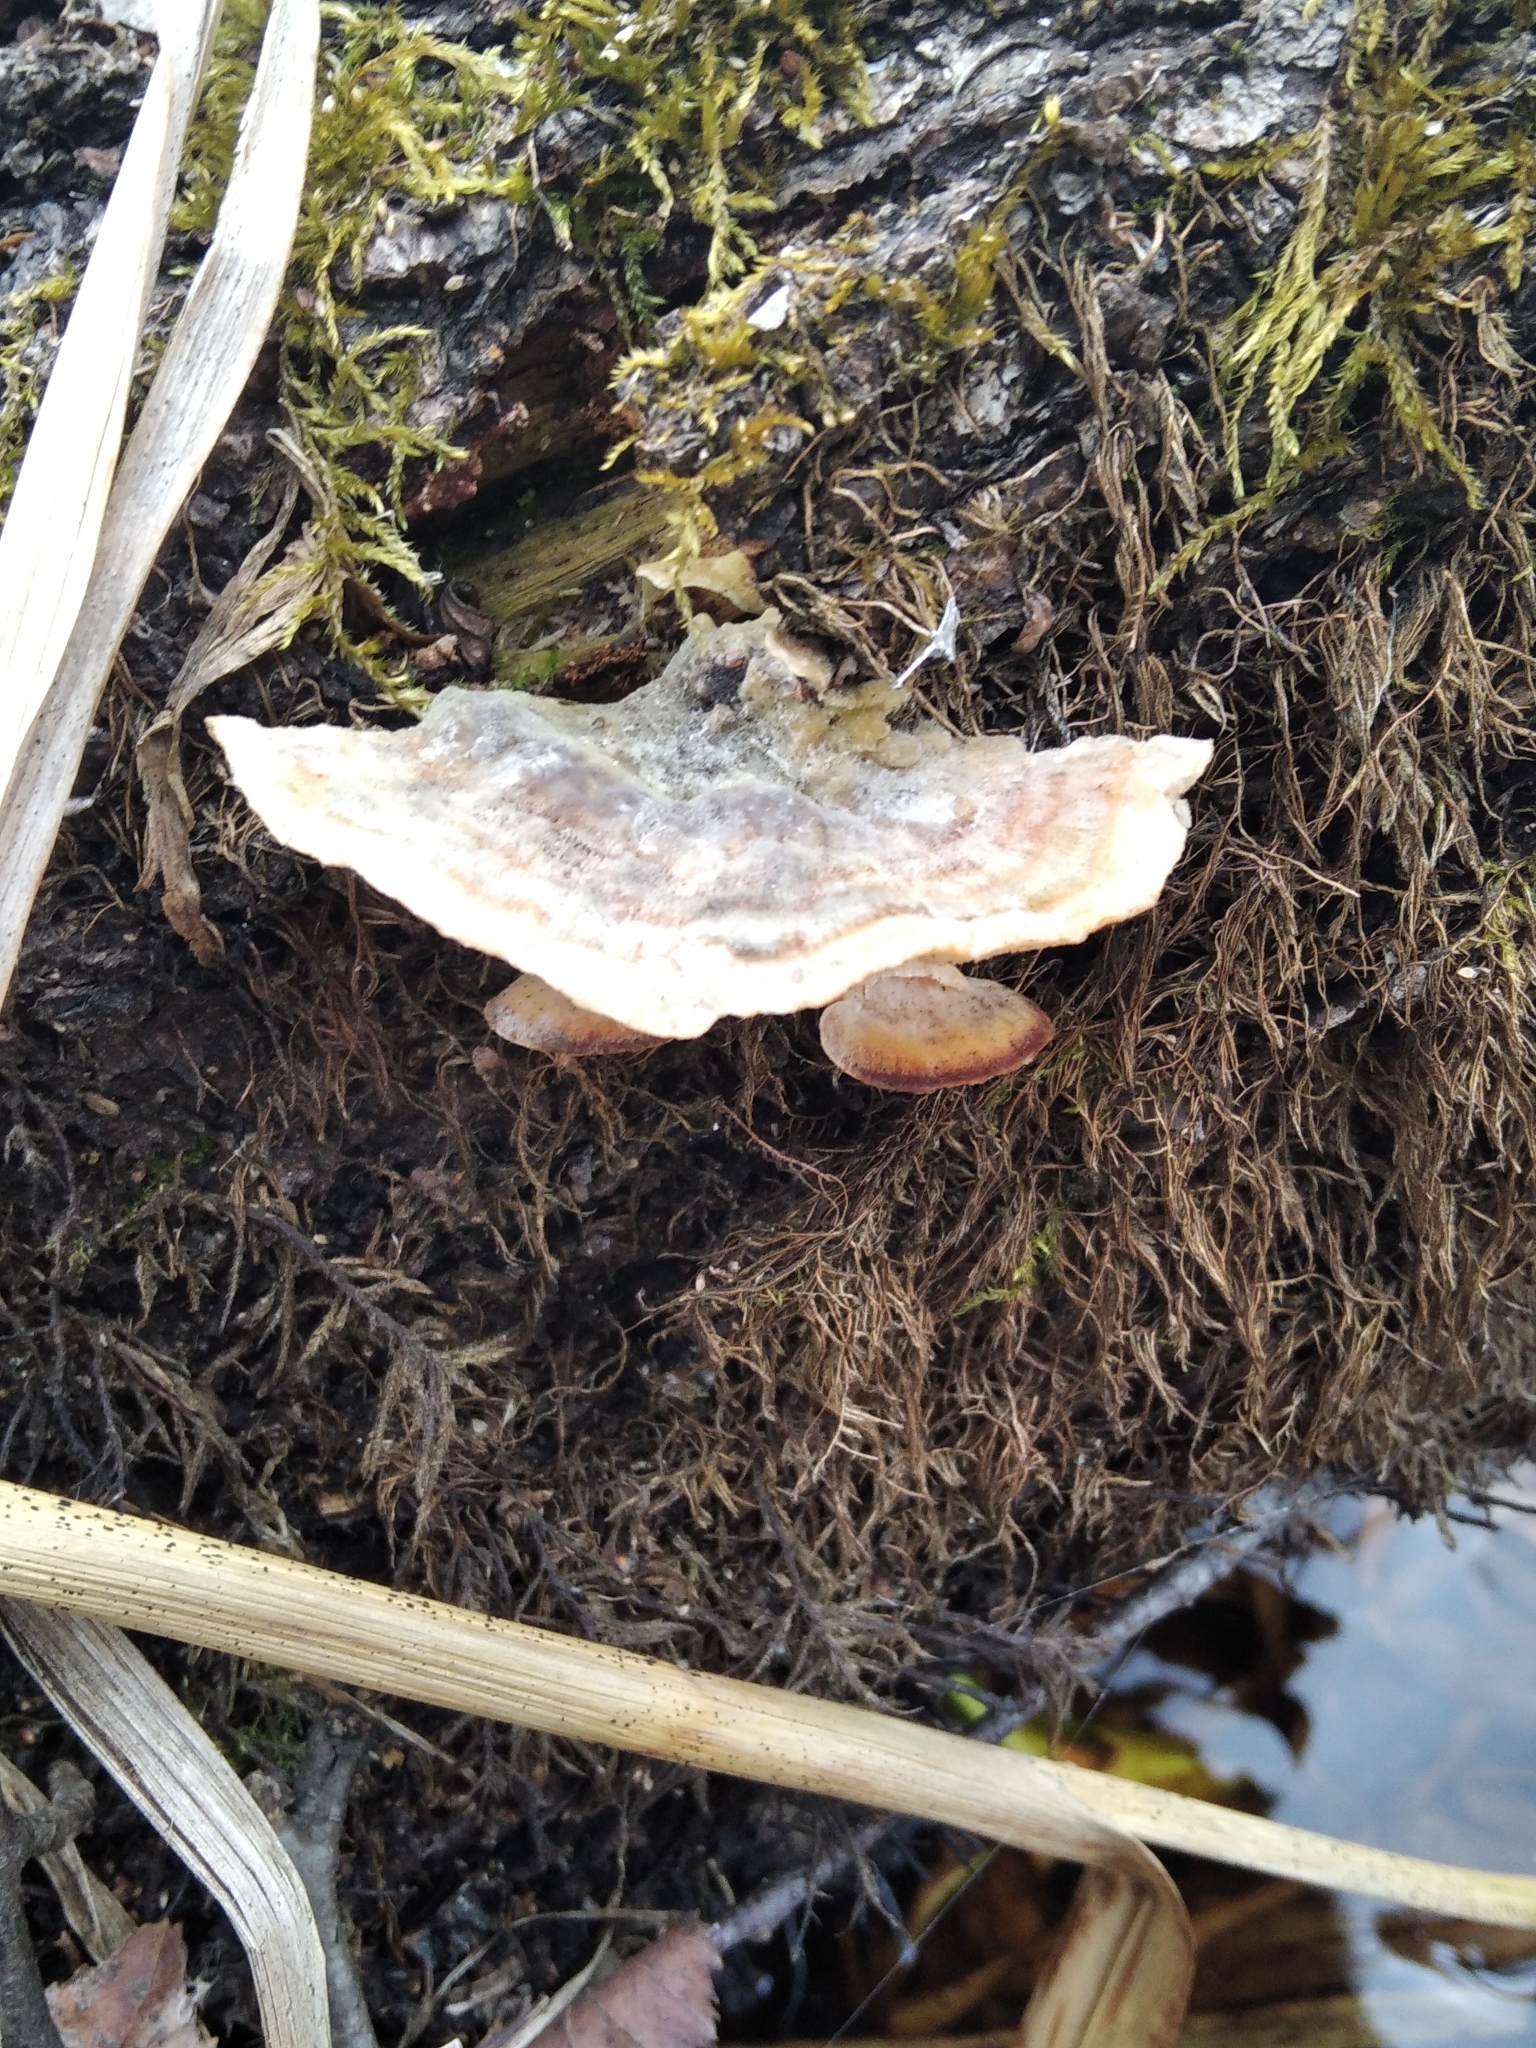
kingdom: Fungi
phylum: Basidiomycota
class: Agaricomycetes
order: Polyporales
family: Polyporaceae
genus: Trametes
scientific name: Trametes ochracea
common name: Ochre bracket
